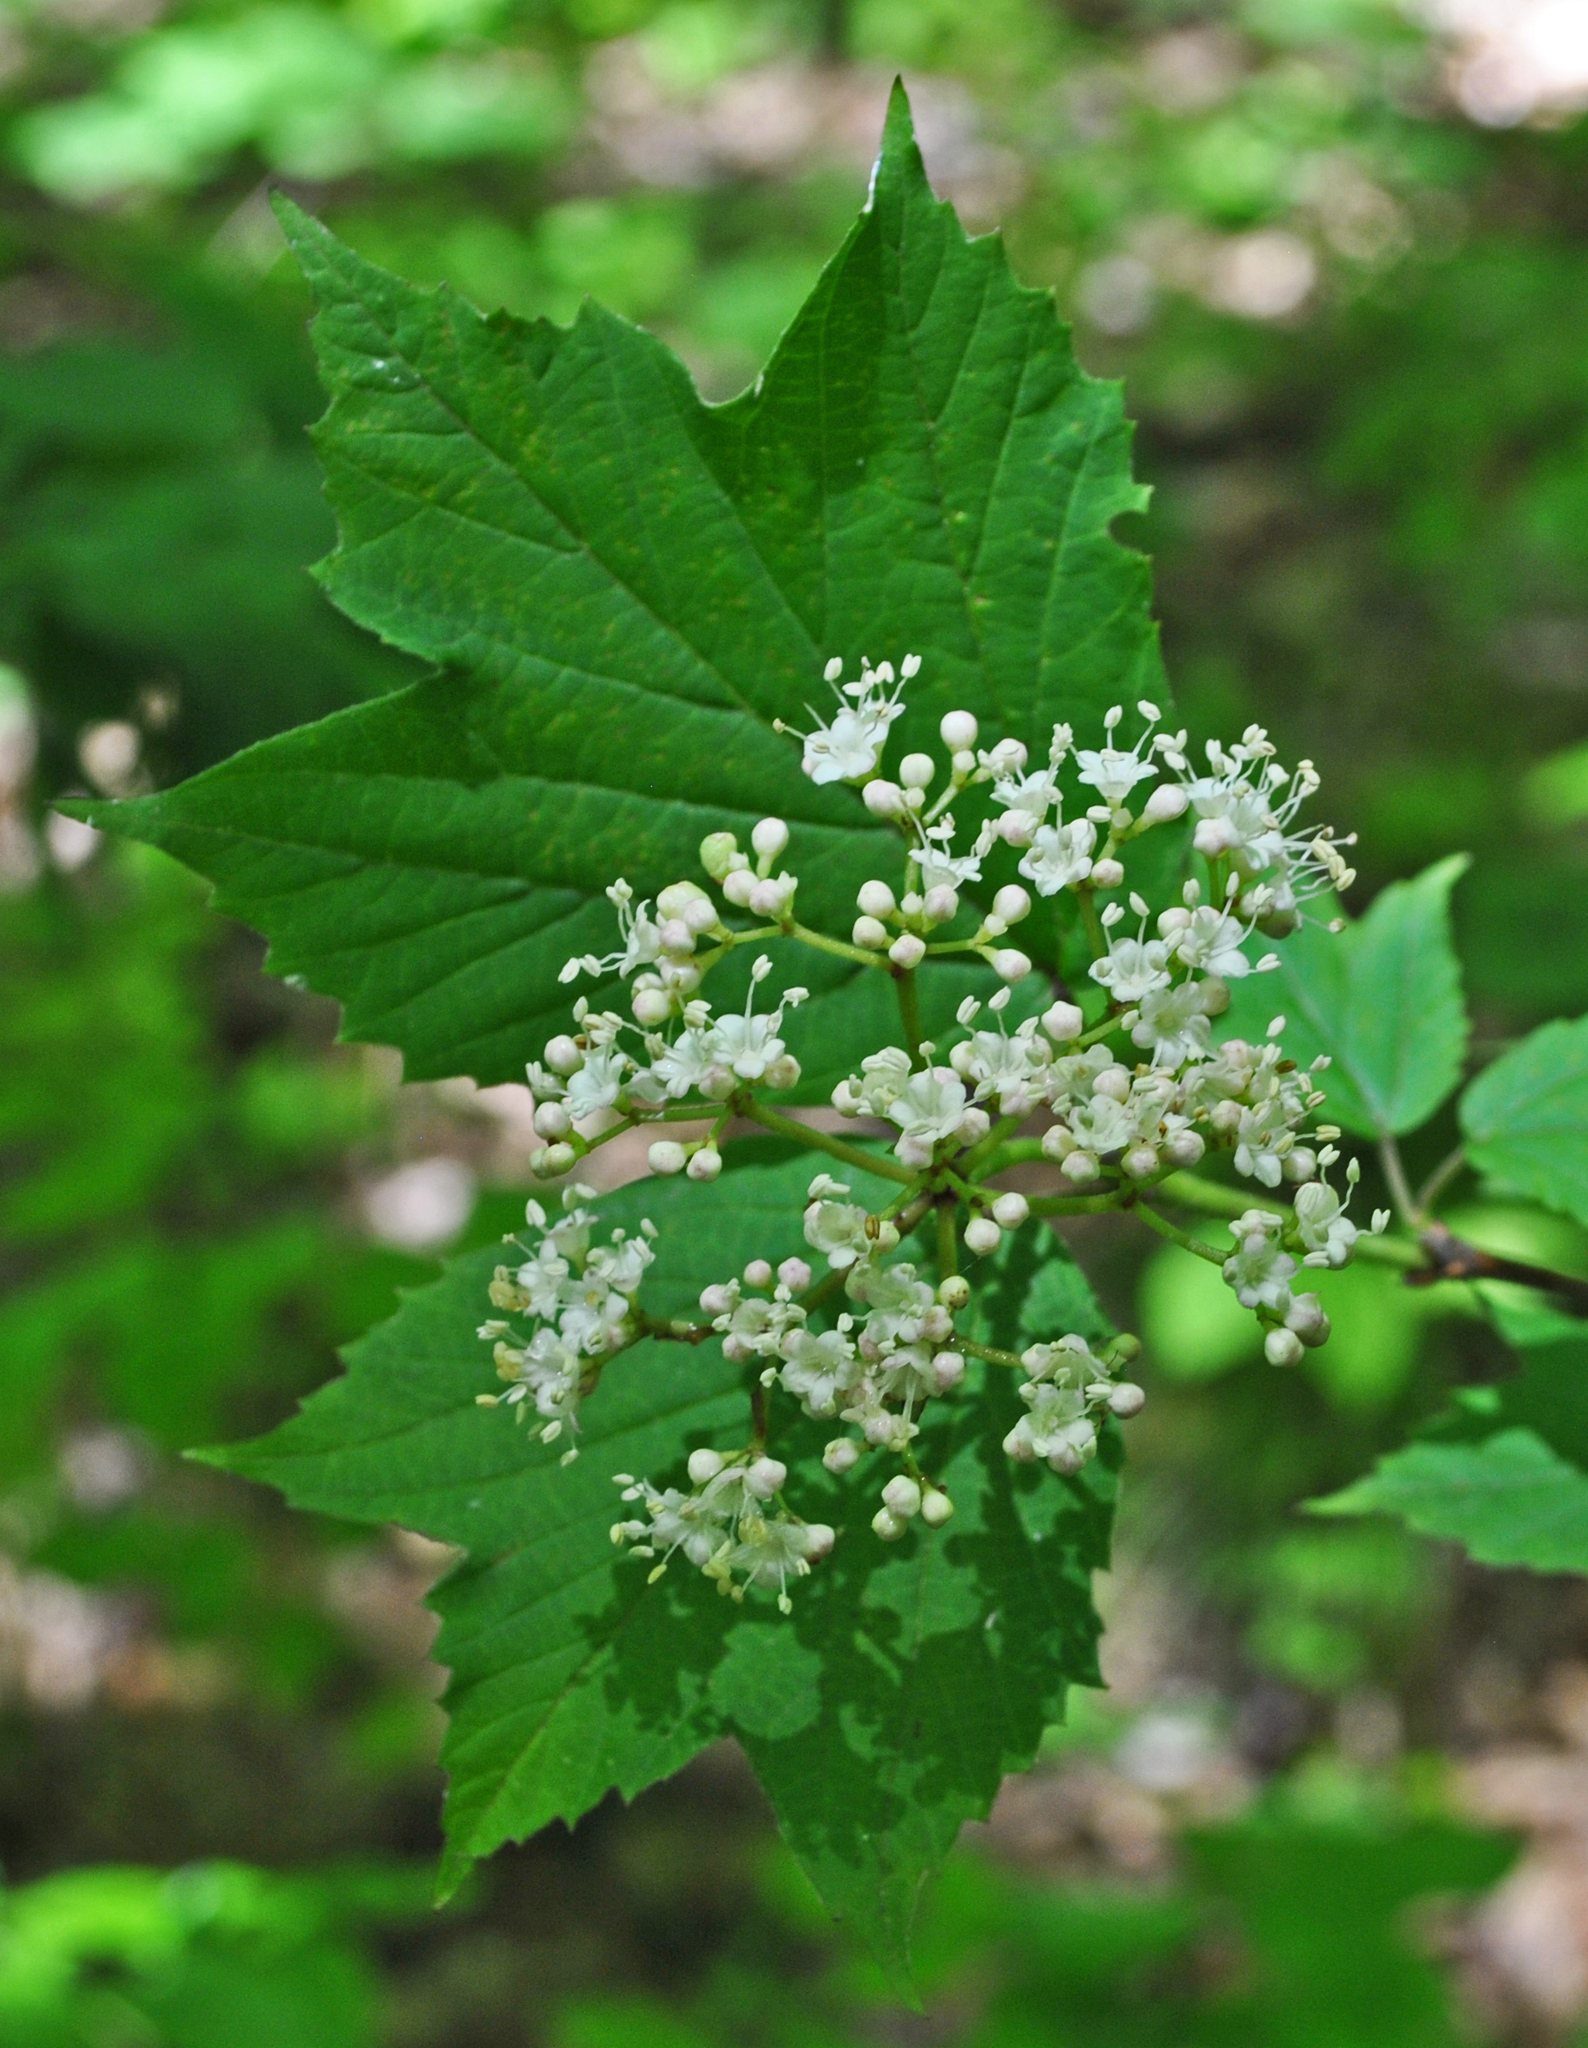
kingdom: Plantae
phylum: Tracheophyta
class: Magnoliopsida
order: Dipsacales
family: Viburnaceae
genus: Viburnum
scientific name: Viburnum acerifolium
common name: Dockmackie
